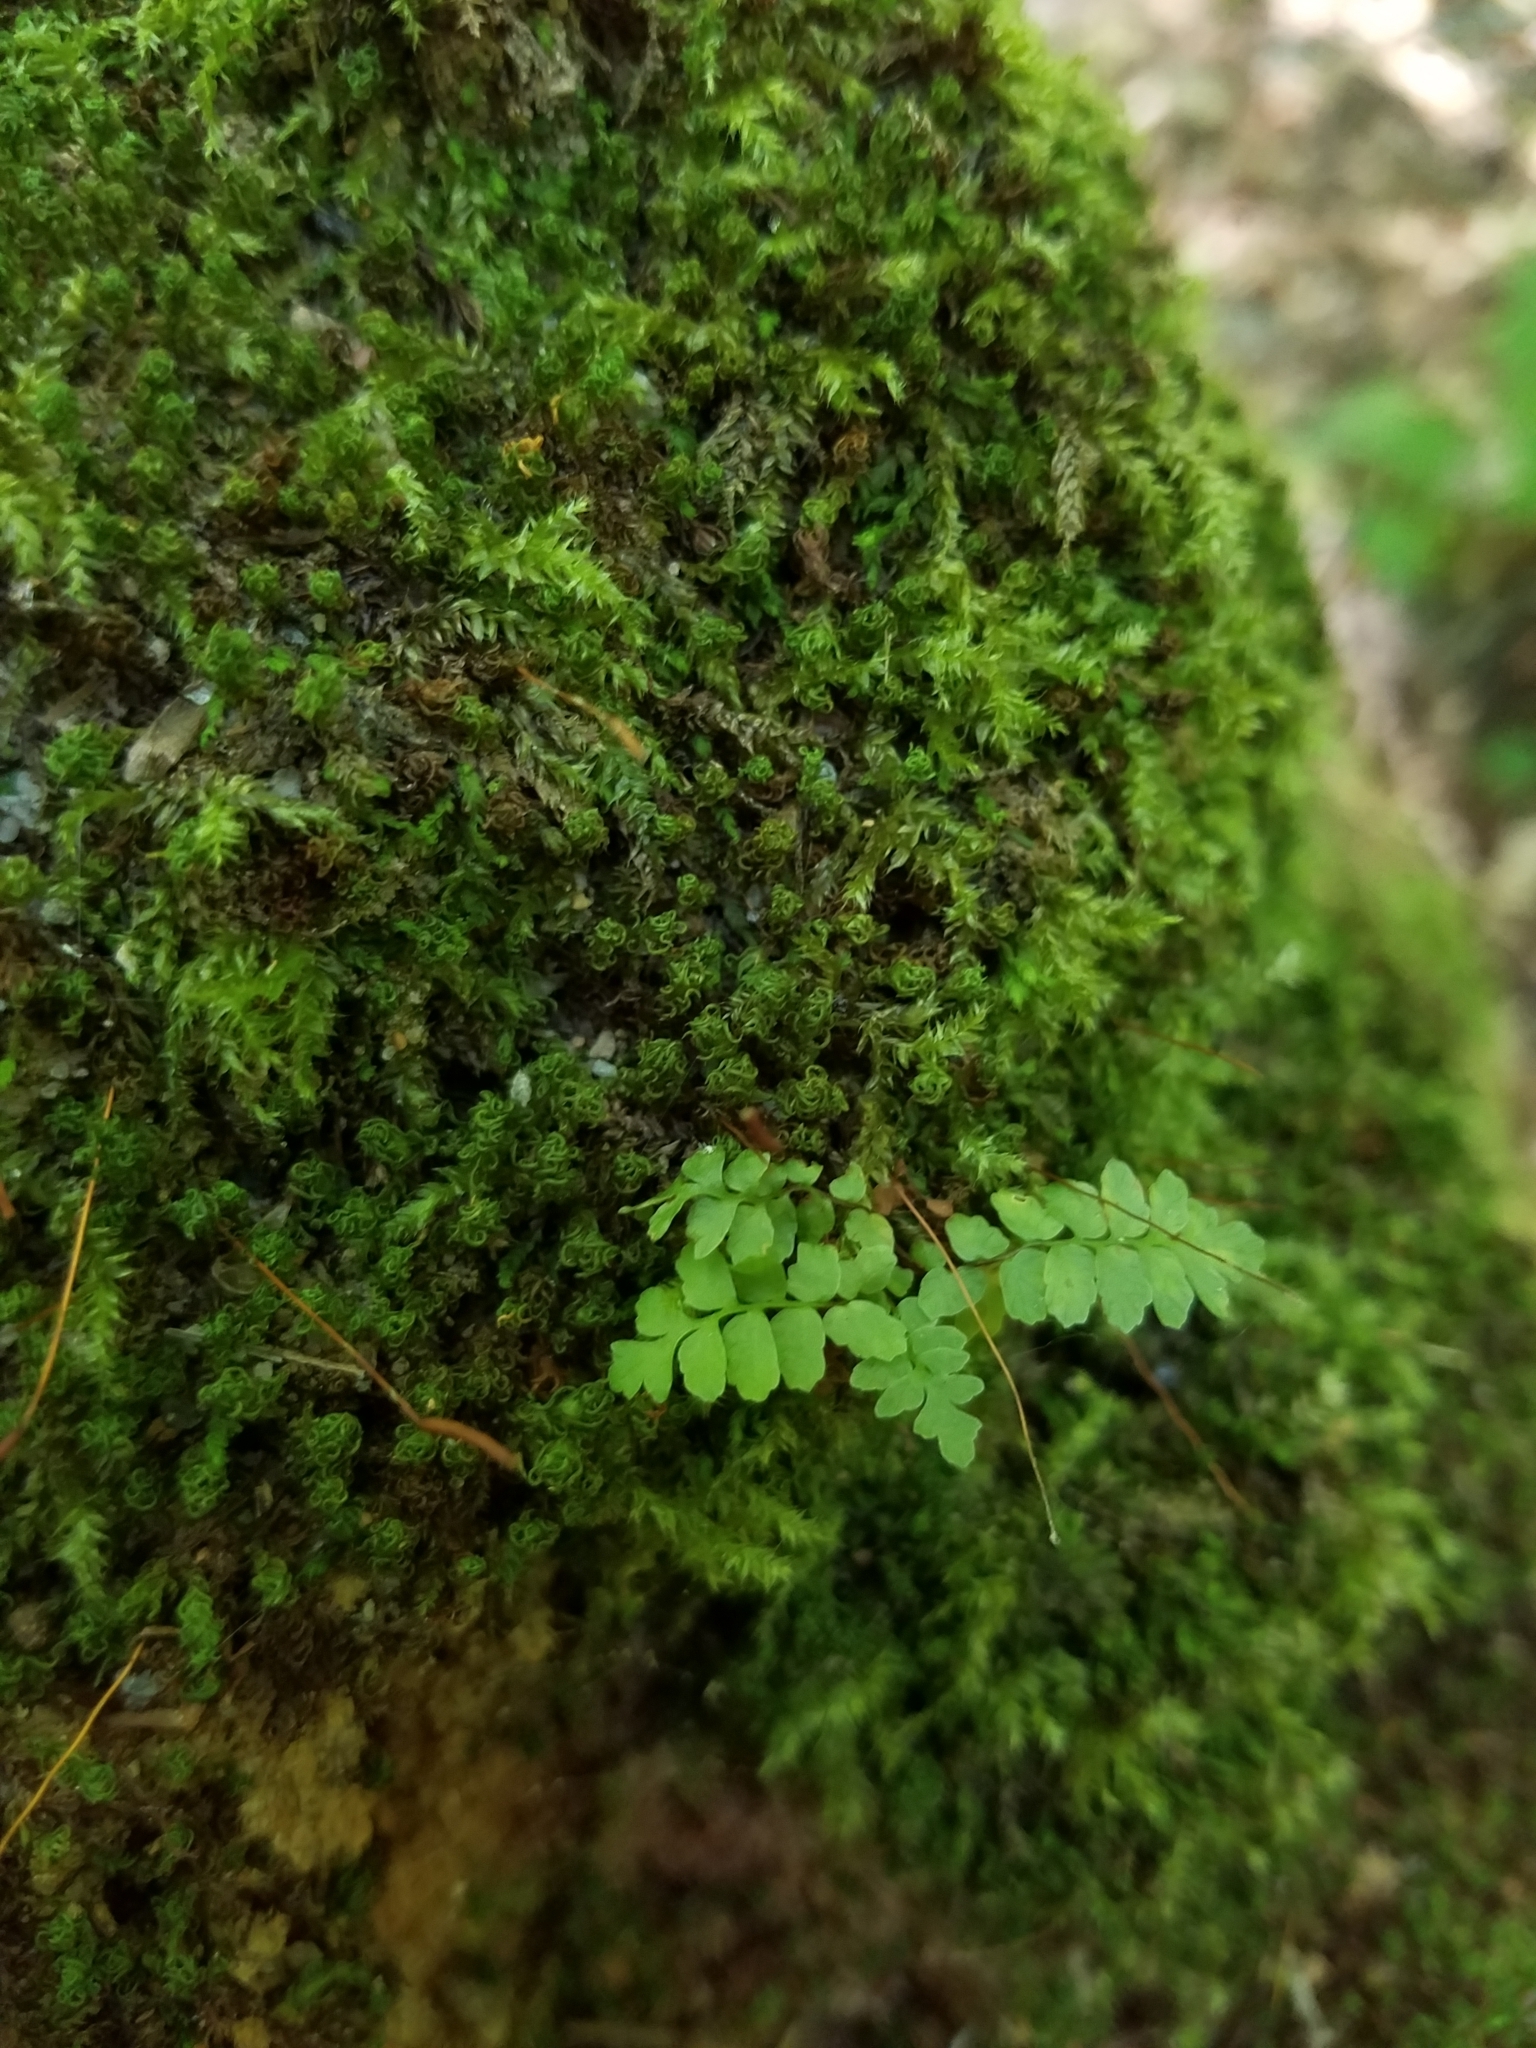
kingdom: Plantae
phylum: Tracheophyta
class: Polypodiopsida
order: Polypodiales
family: Aspleniaceae
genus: Asplenium
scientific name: Asplenium platyneuron
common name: Ebony spleenwort
